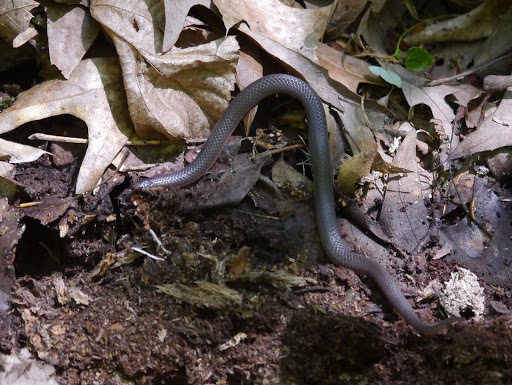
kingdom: Animalia
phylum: Chordata
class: Squamata
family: Colubridae
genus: Carphophis
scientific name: Carphophis amoenus
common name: Eastern worm snake
